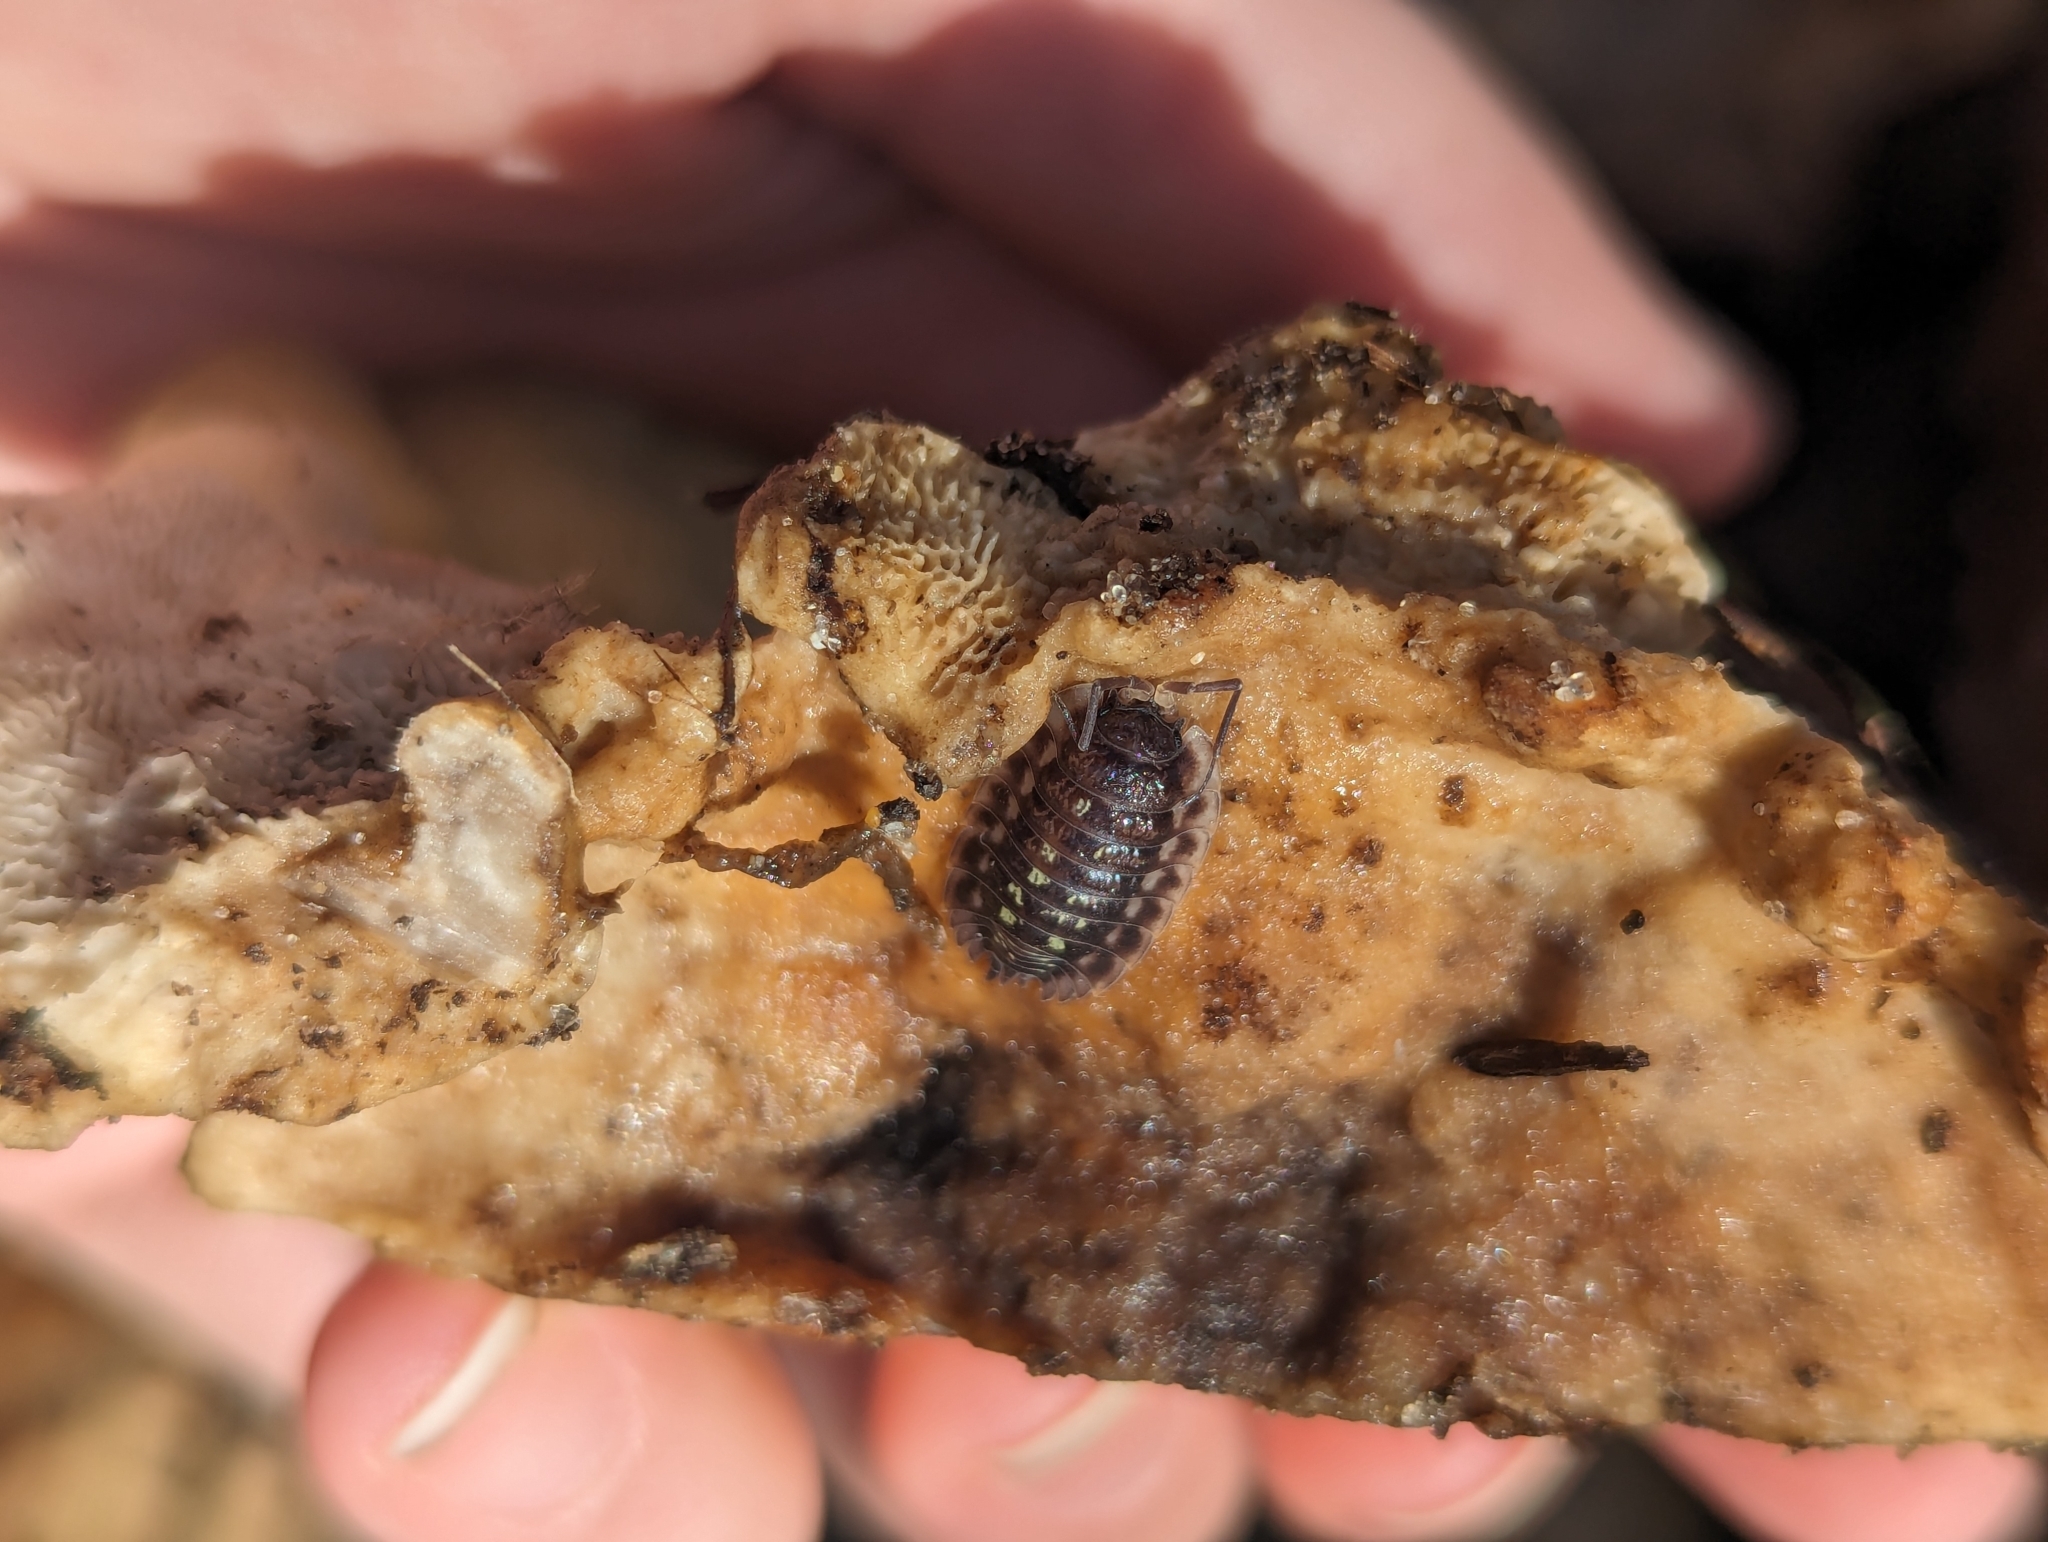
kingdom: Animalia
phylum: Arthropoda
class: Malacostraca
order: Isopoda
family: Oniscidae
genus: Oniscus
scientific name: Oniscus asellus
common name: Common shiny woodlouse
